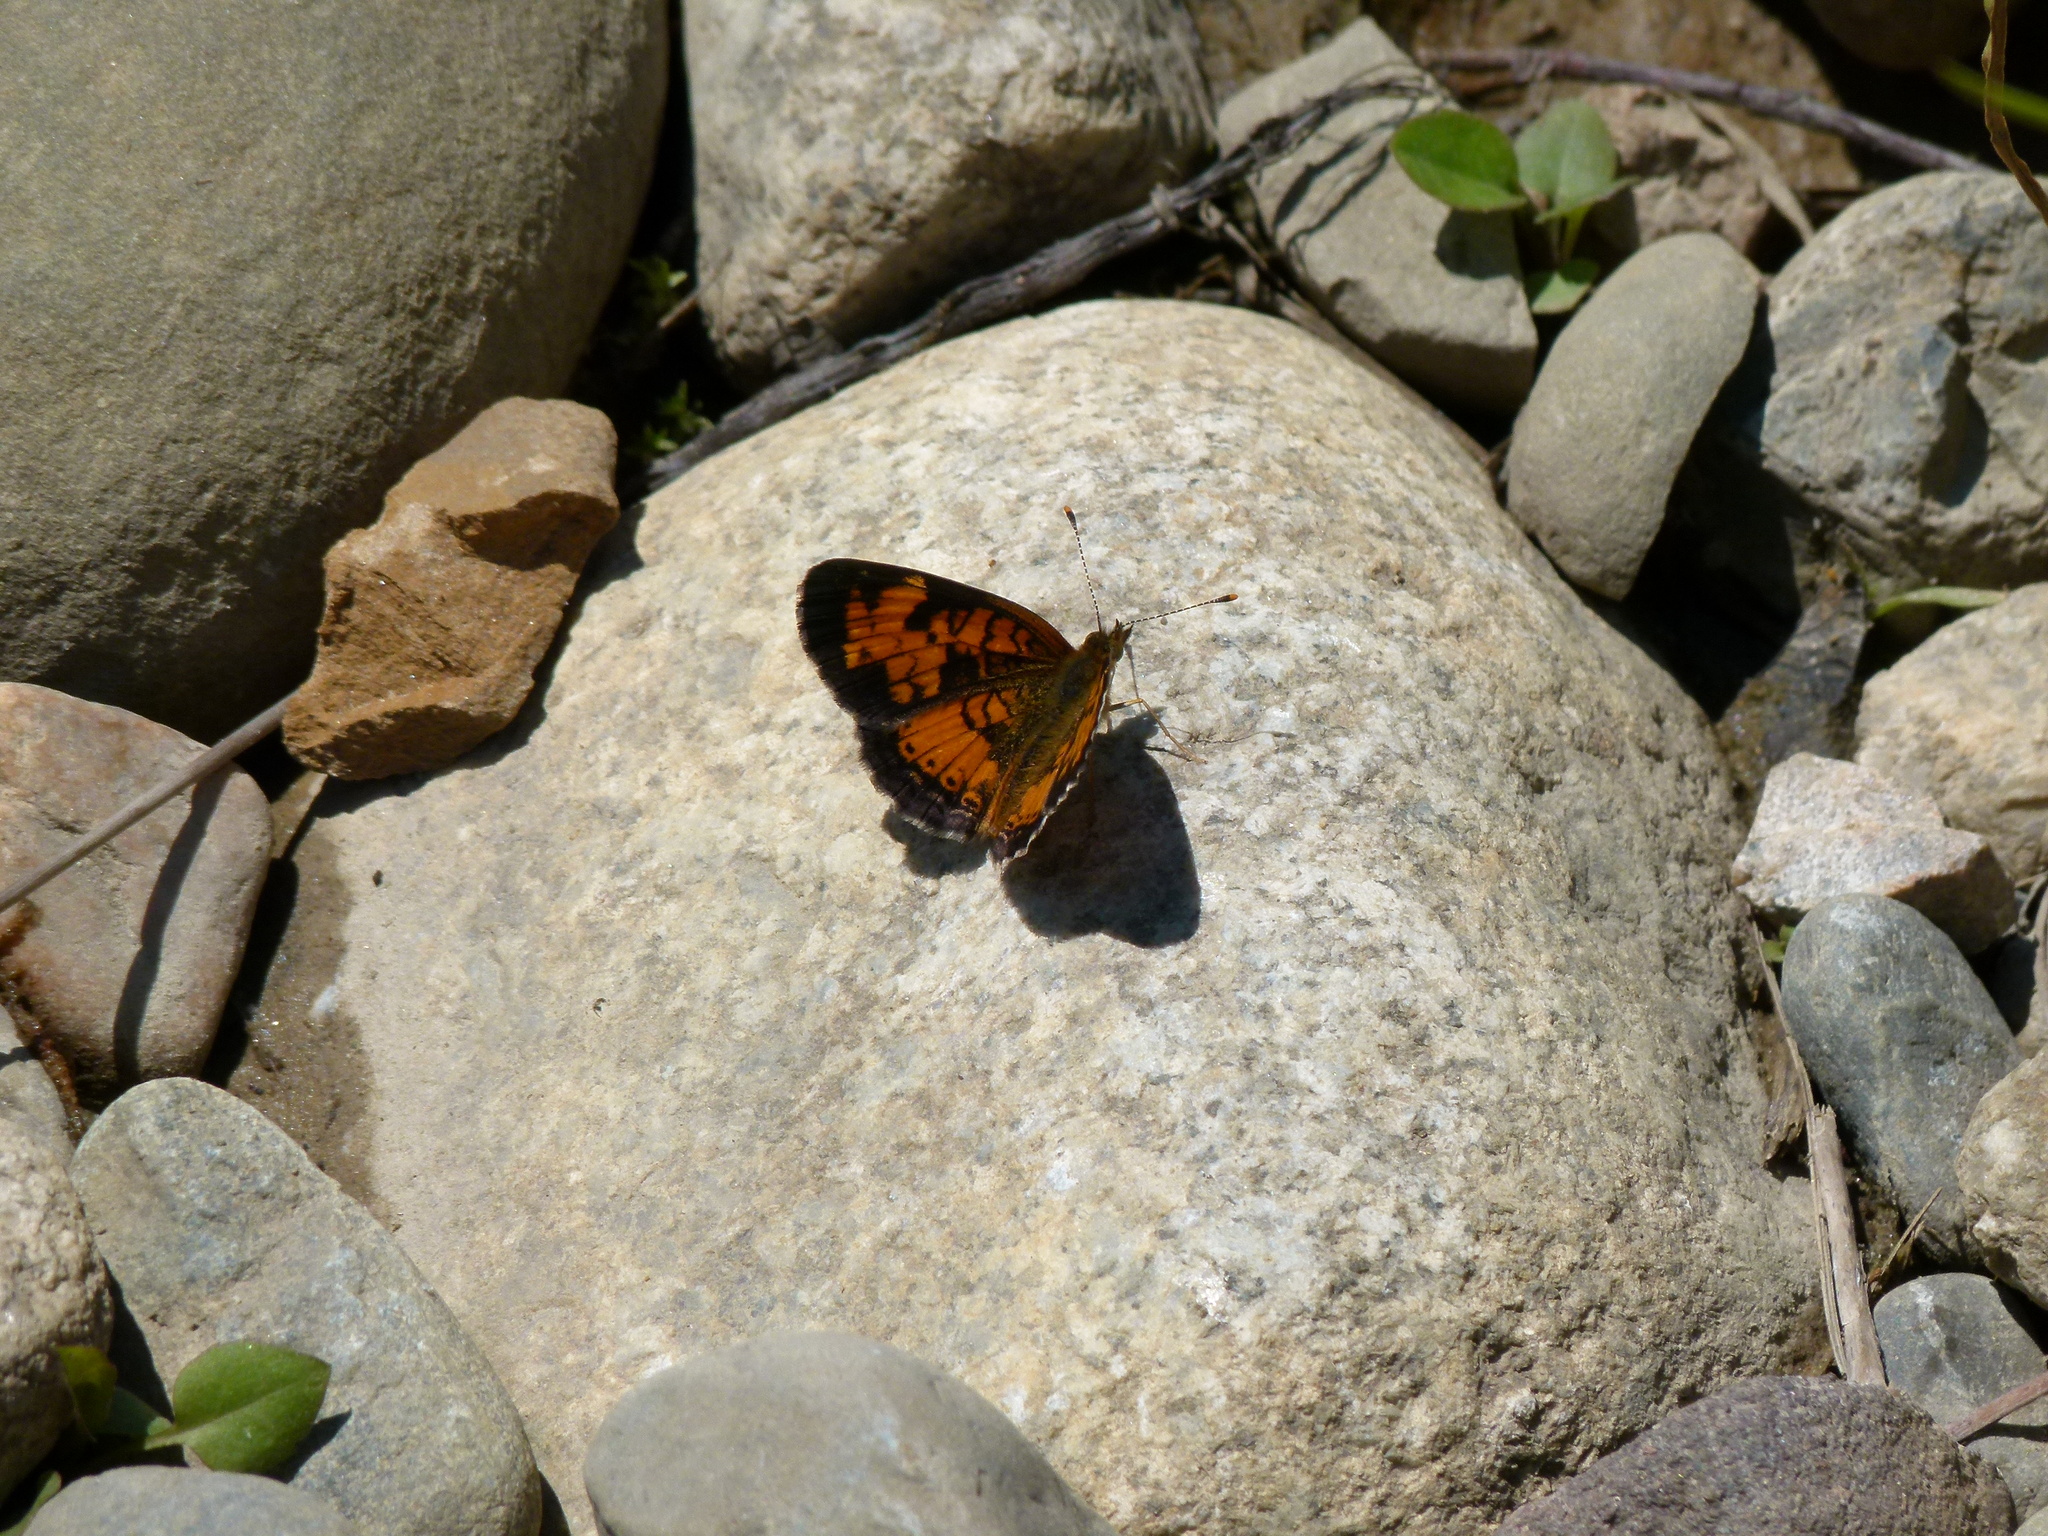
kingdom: Animalia
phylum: Arthropoda
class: Insecta
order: Lepidoptera
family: Nymphalidae
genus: Phyciodes
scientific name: Phyciodes tharos
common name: Pearl crescent
